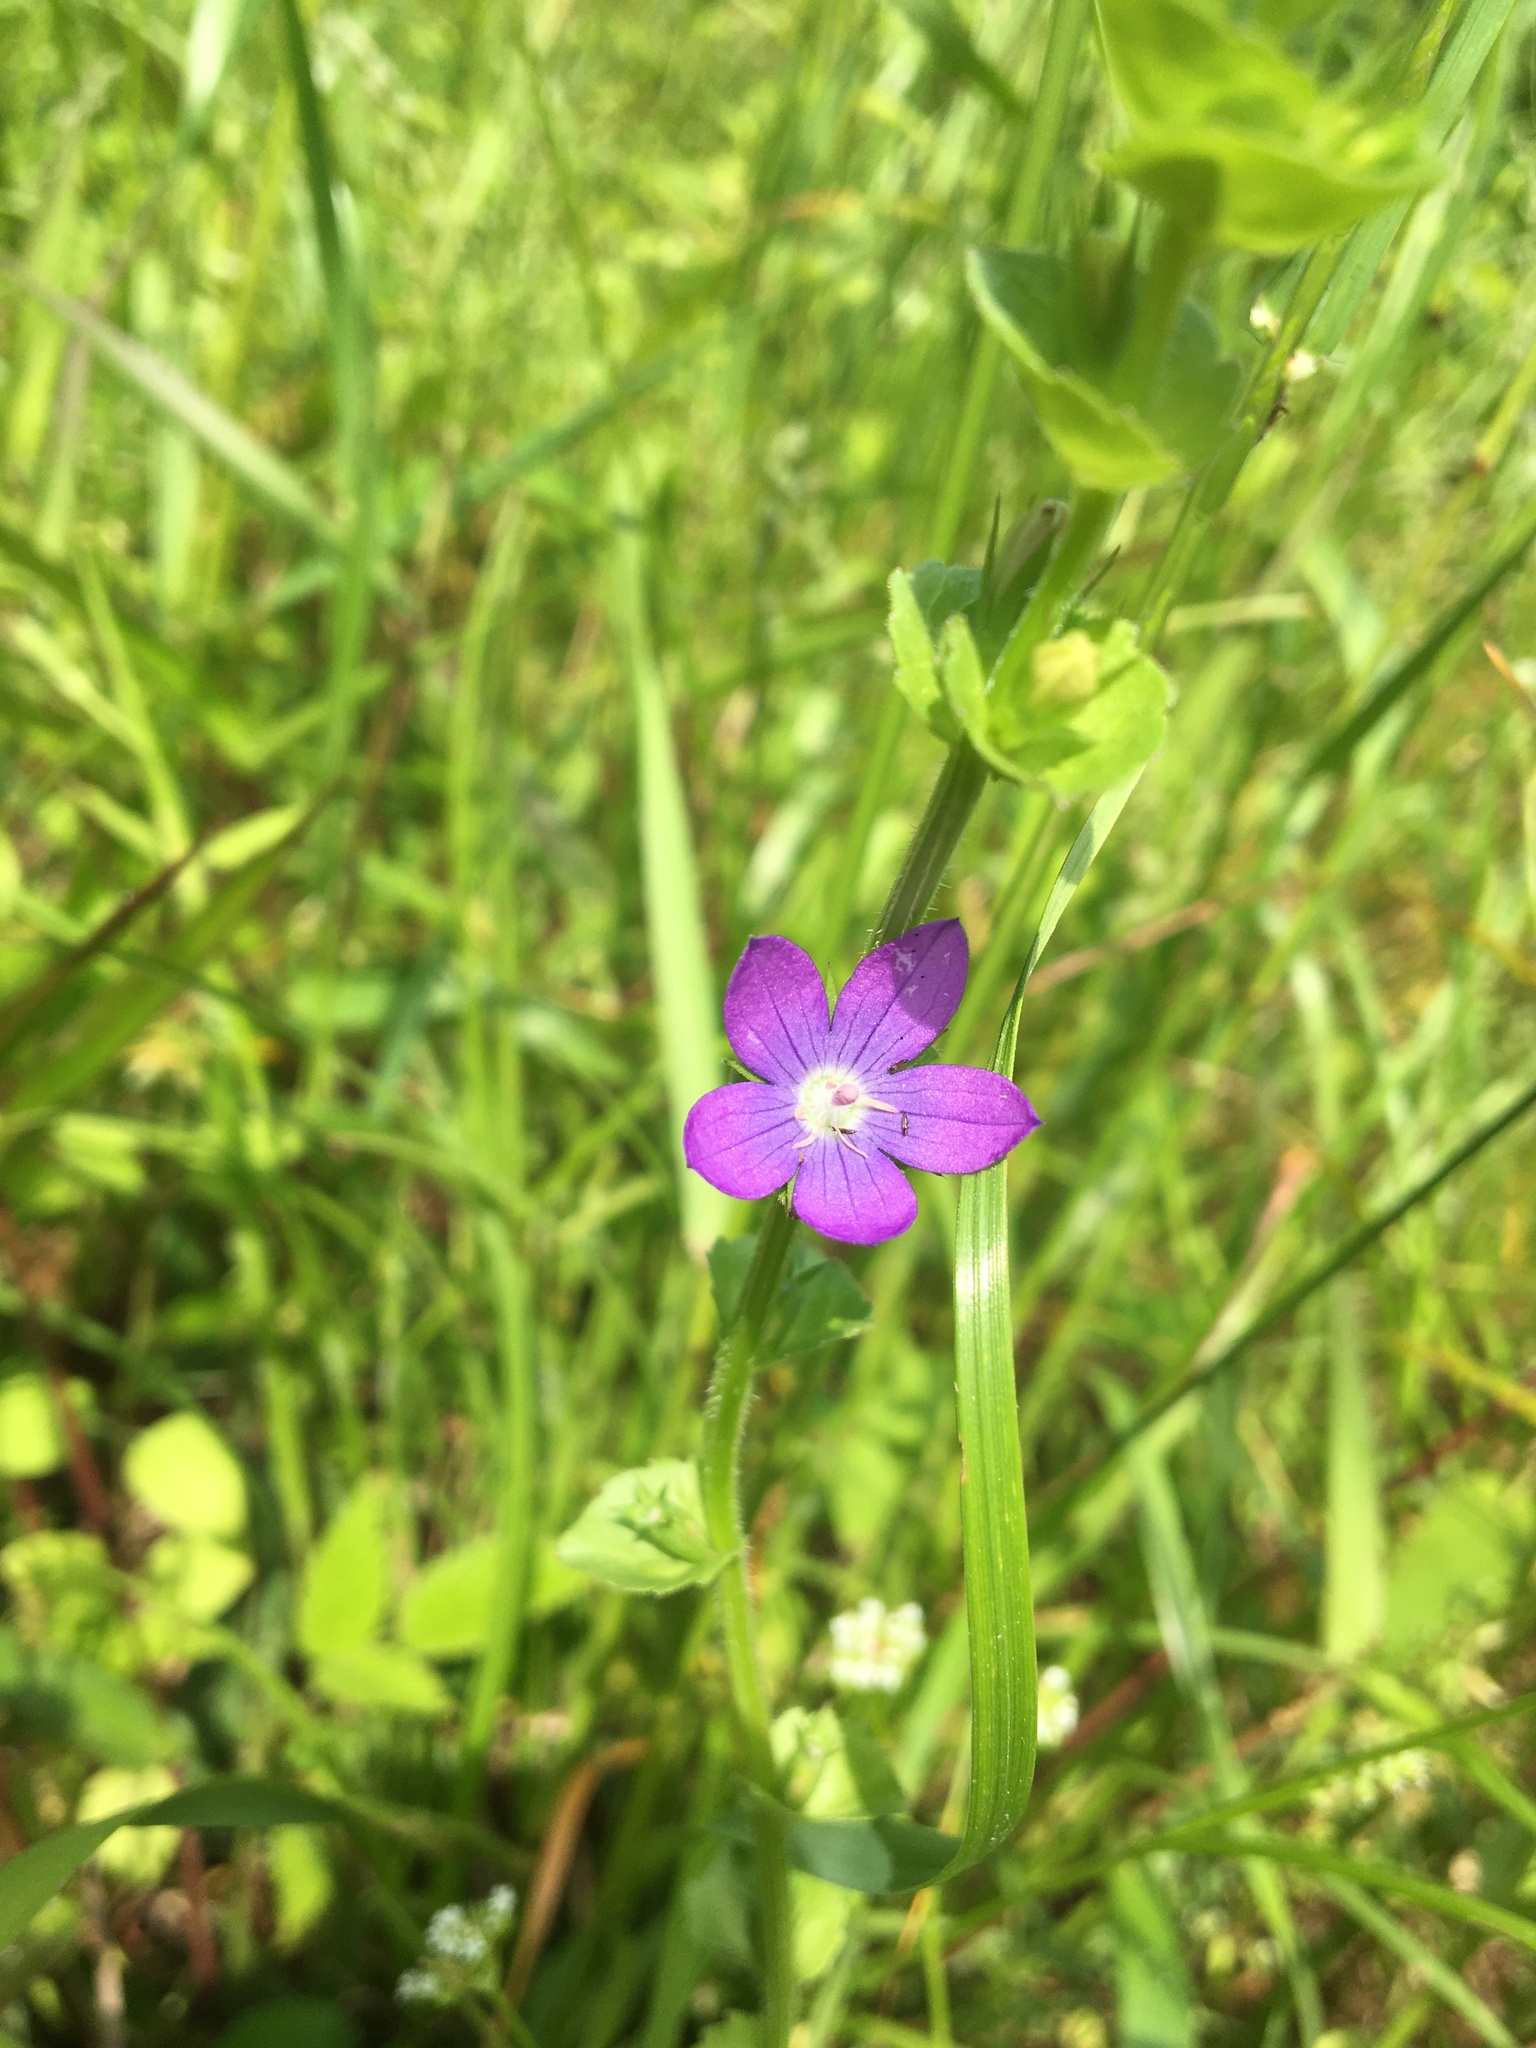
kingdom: Plantae
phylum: Tracheophyta
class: Magnoliopsida
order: Asterales
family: Campanulaceae
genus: Triodanis
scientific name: Triodanis perfoliata
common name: Clasping venus' looking-glass
